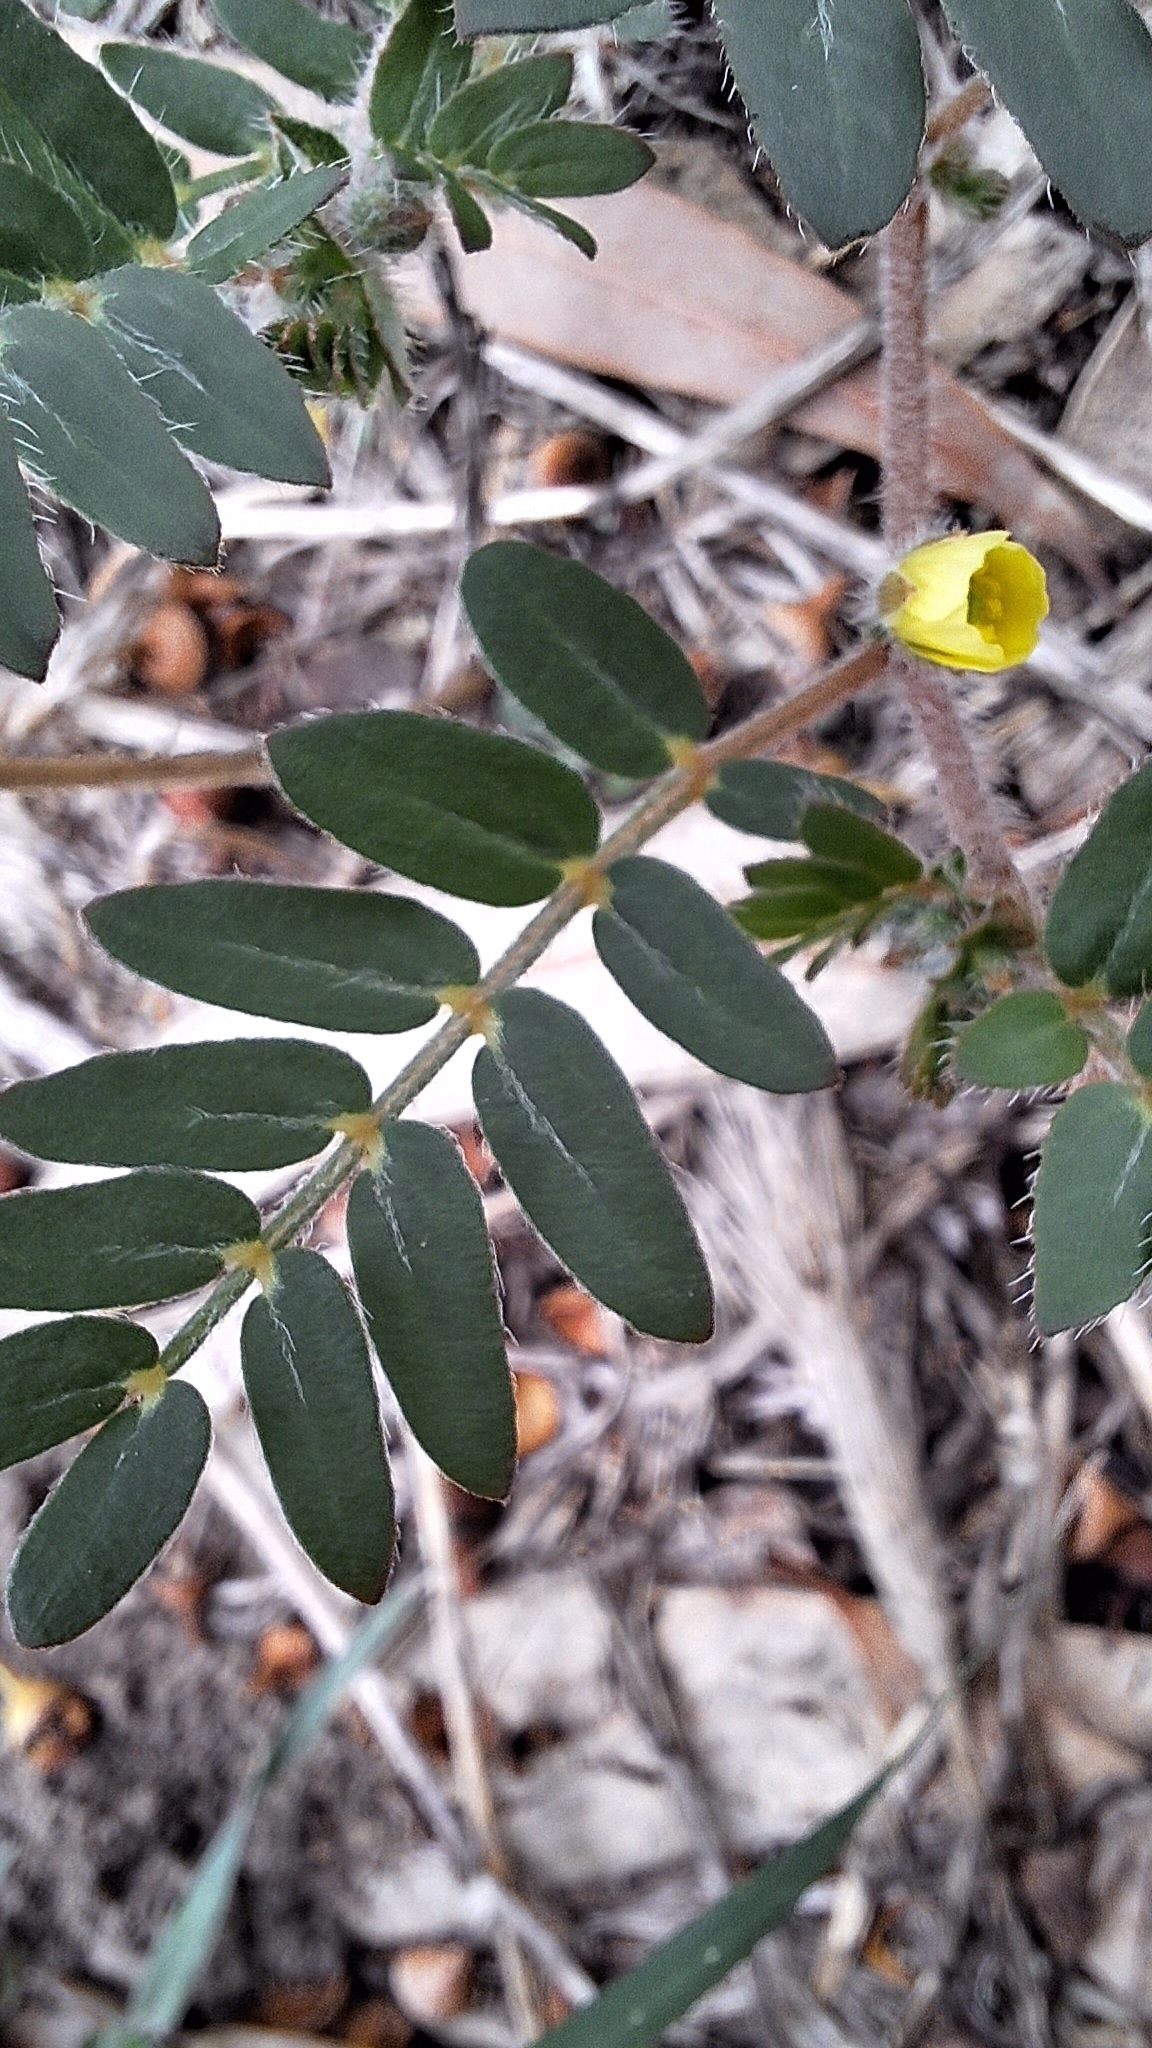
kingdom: Plantae
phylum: Tracheophyta
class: Magnoliopsida
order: Zygophyllales
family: Zygophyllaceae
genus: Tribulus
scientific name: Tribulus terrestris
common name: Puncturevine
